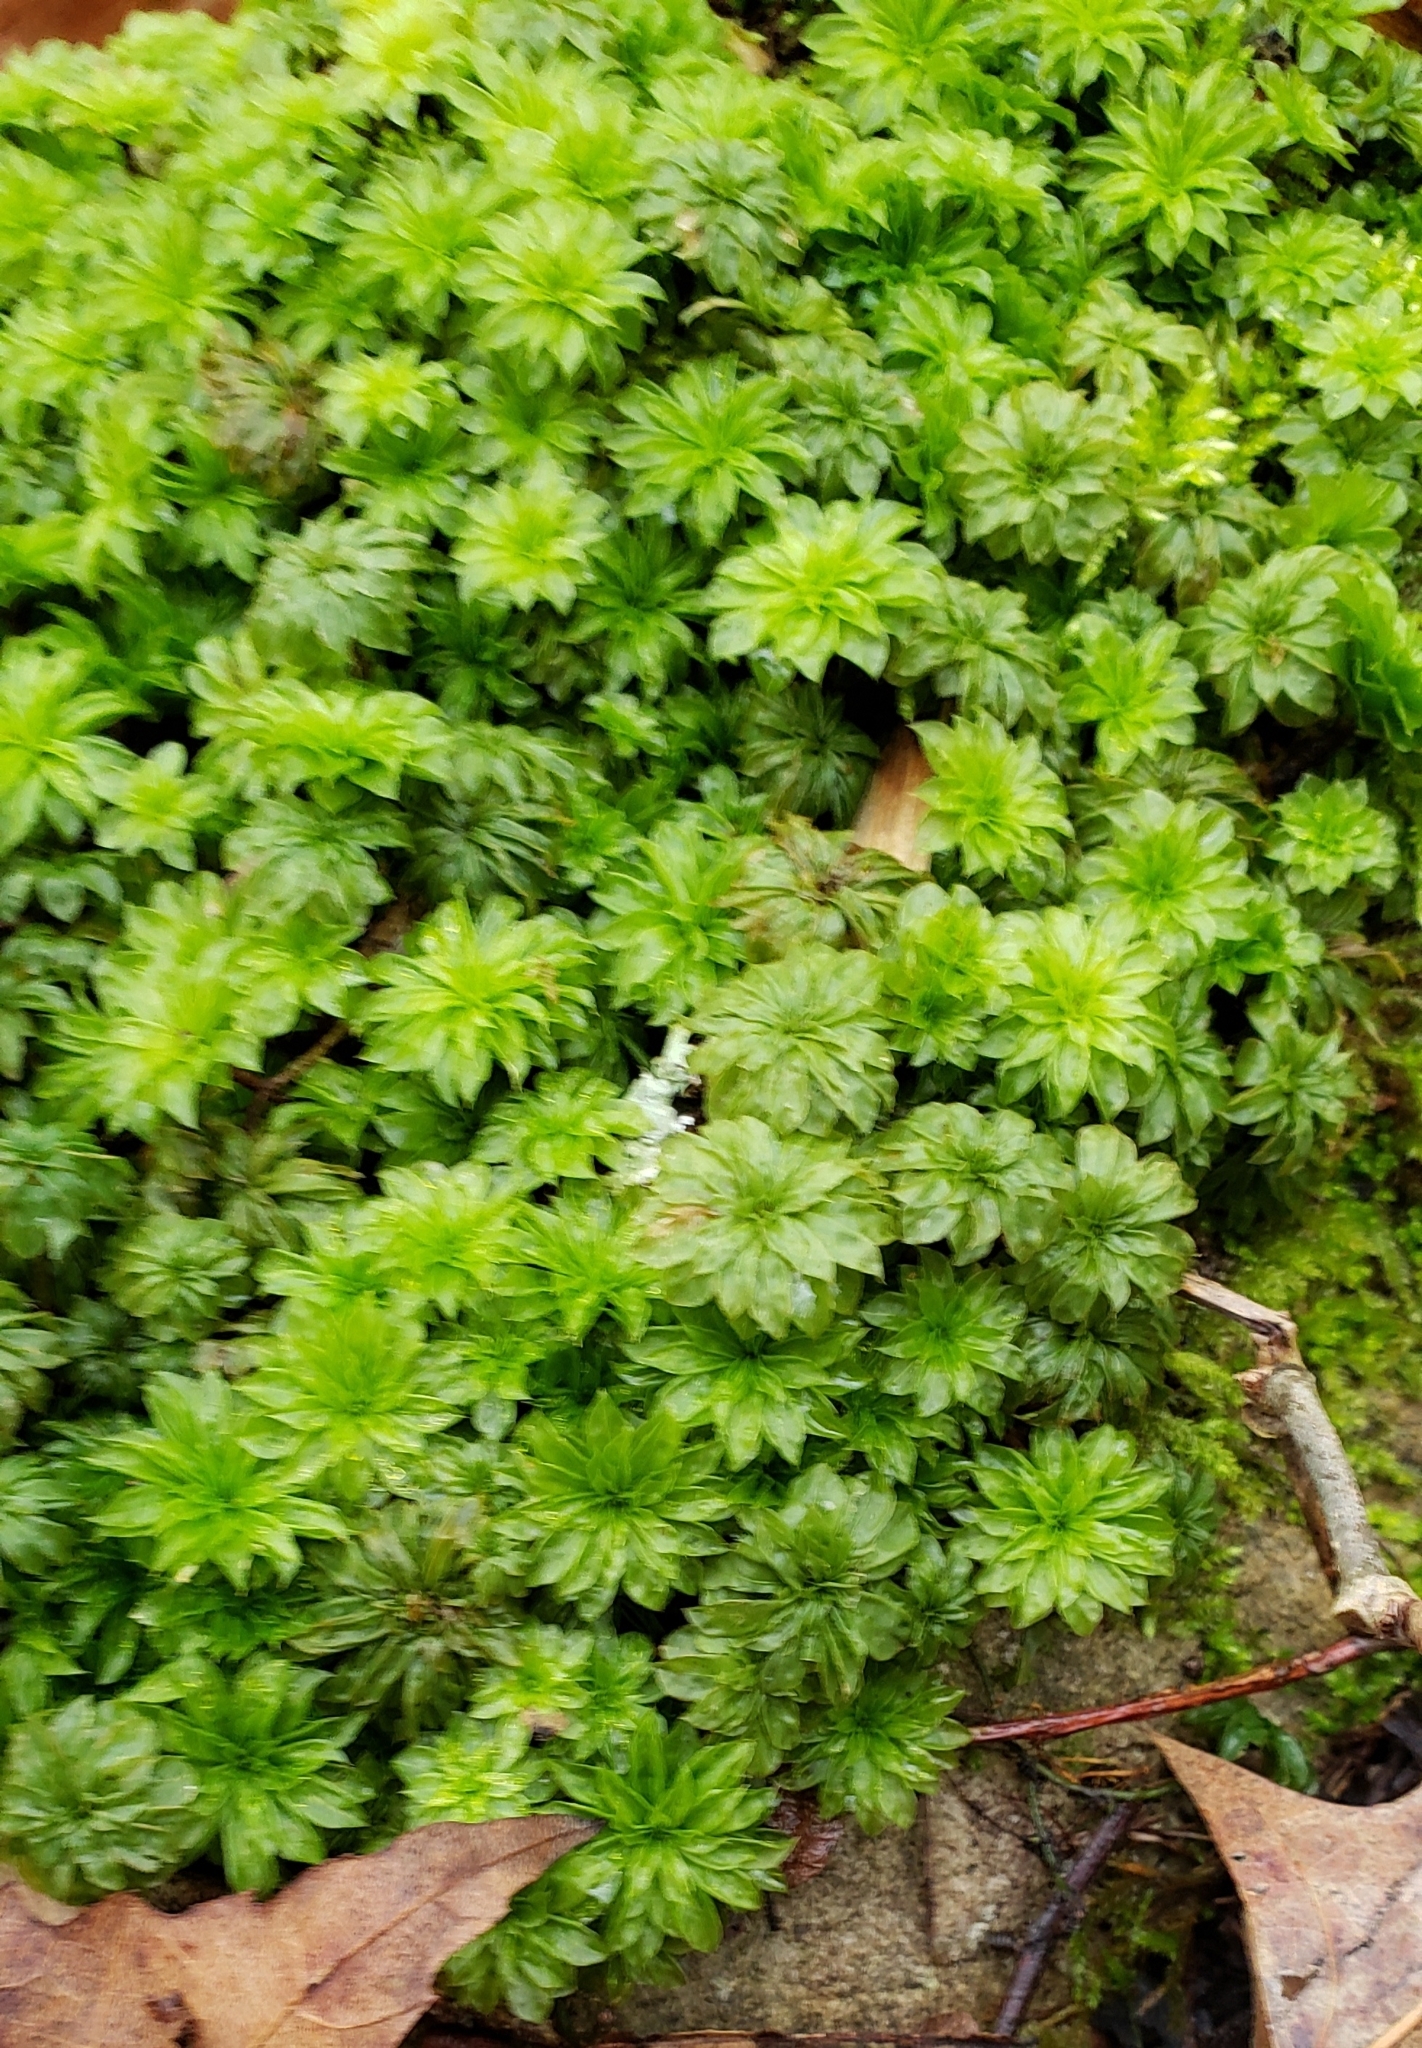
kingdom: Plantae
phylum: Bryophyta
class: Bryopsida
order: Bryales
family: Bryaceae
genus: Rhodobryum
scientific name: Rhodobryum ontariense
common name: Ontario rhodobryum moss
